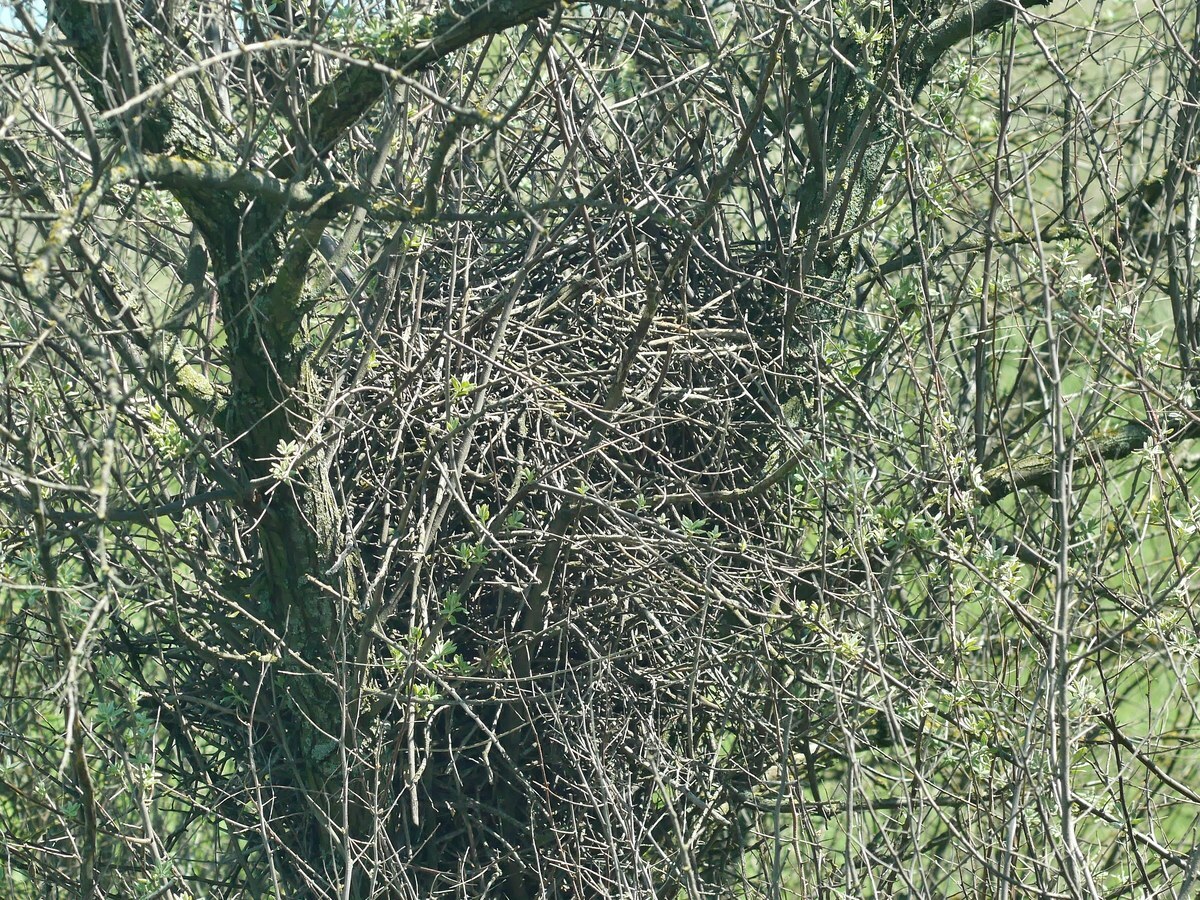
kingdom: Animalia
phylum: Chordata
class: Aves
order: Strigiformes
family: Strigidae
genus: Asio
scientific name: Asio otus
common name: Long-eared owl
